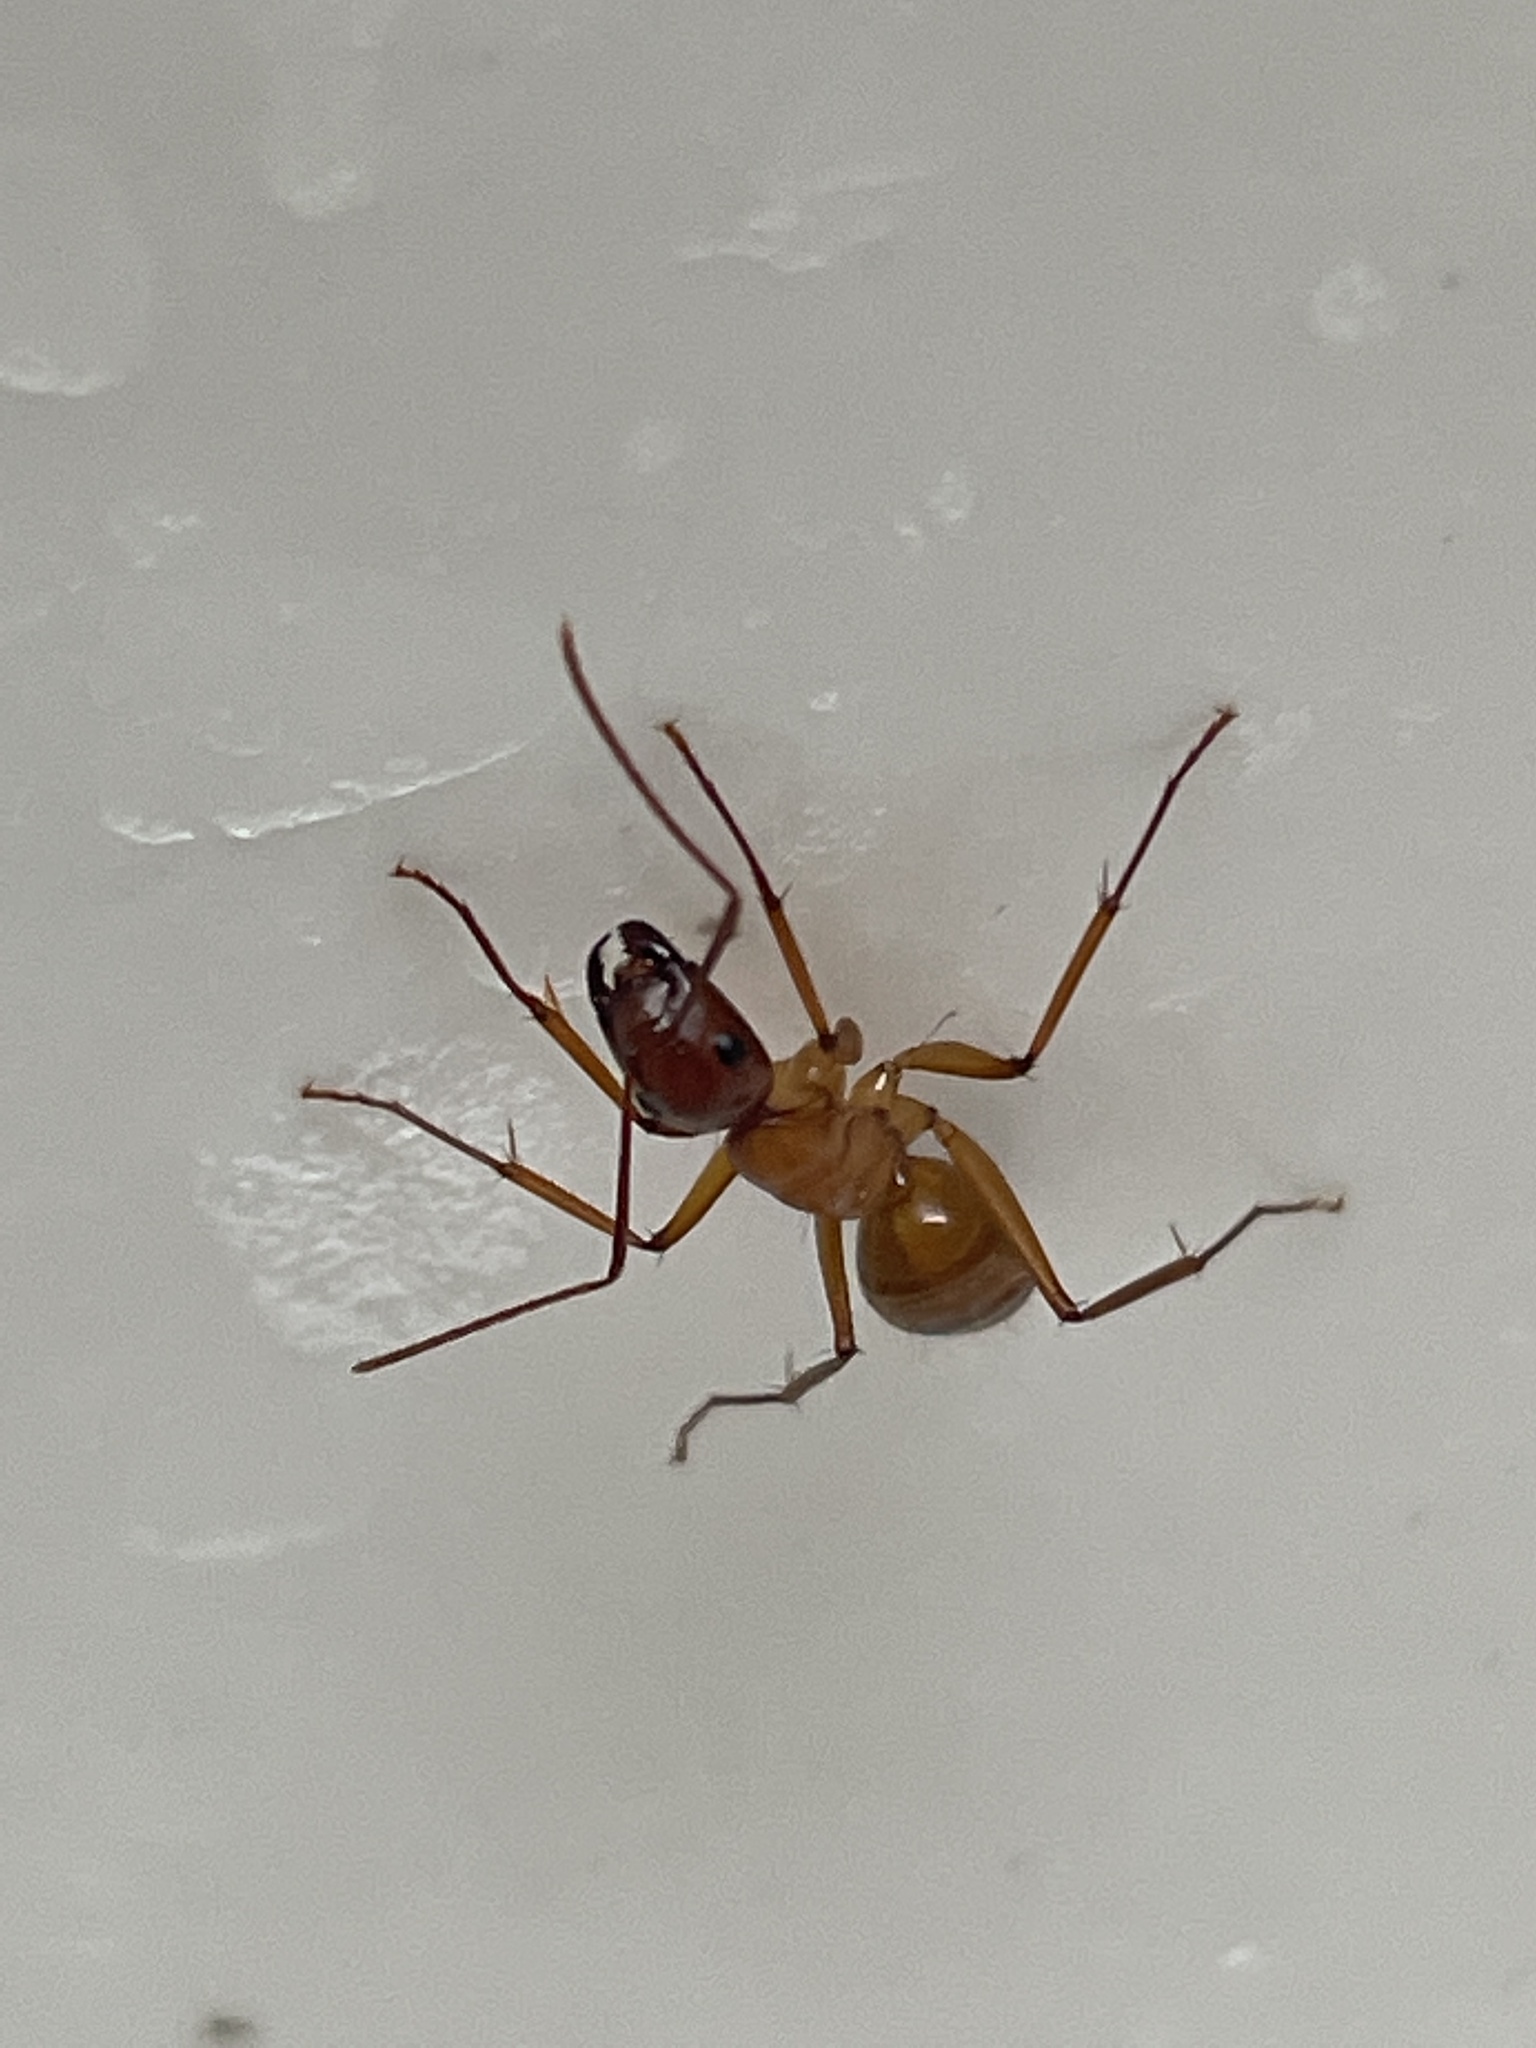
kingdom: Animalia
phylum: Arthropoda
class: Insecta
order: Hymenoptera
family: Formicidae
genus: Camponotus
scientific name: Camponotus castaneus
